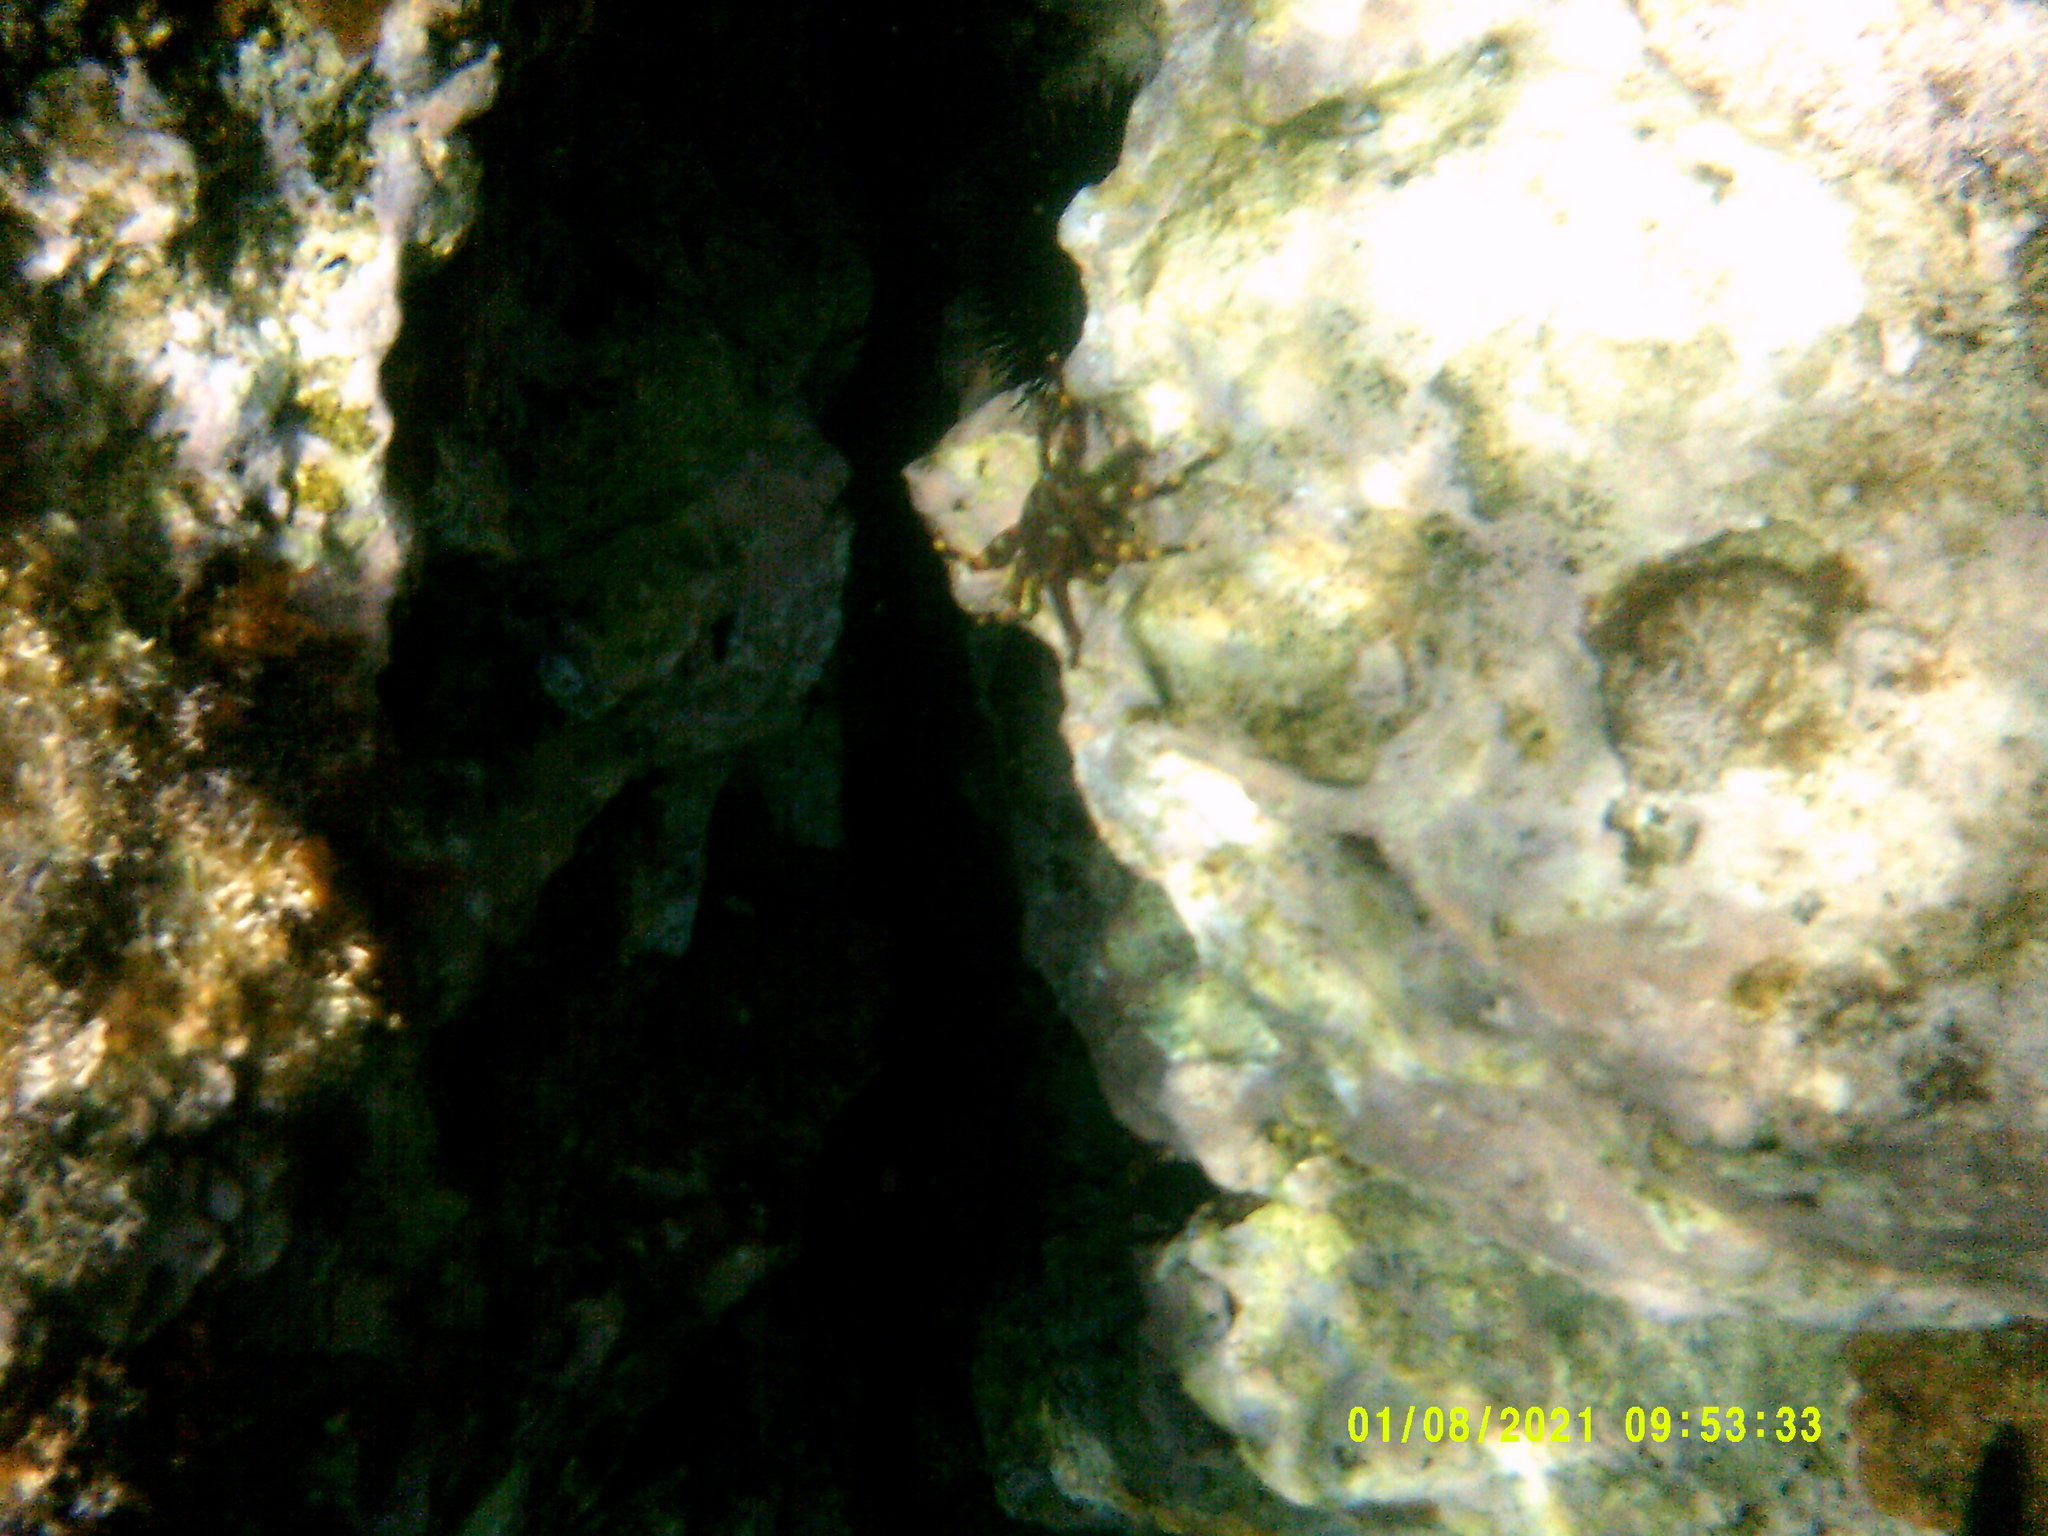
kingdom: Animalia
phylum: Arthropoda
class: Malacostraca
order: Decapoda
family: Percnidae
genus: Percnon
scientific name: Percnon gibbesi
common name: Nimble spray crab
